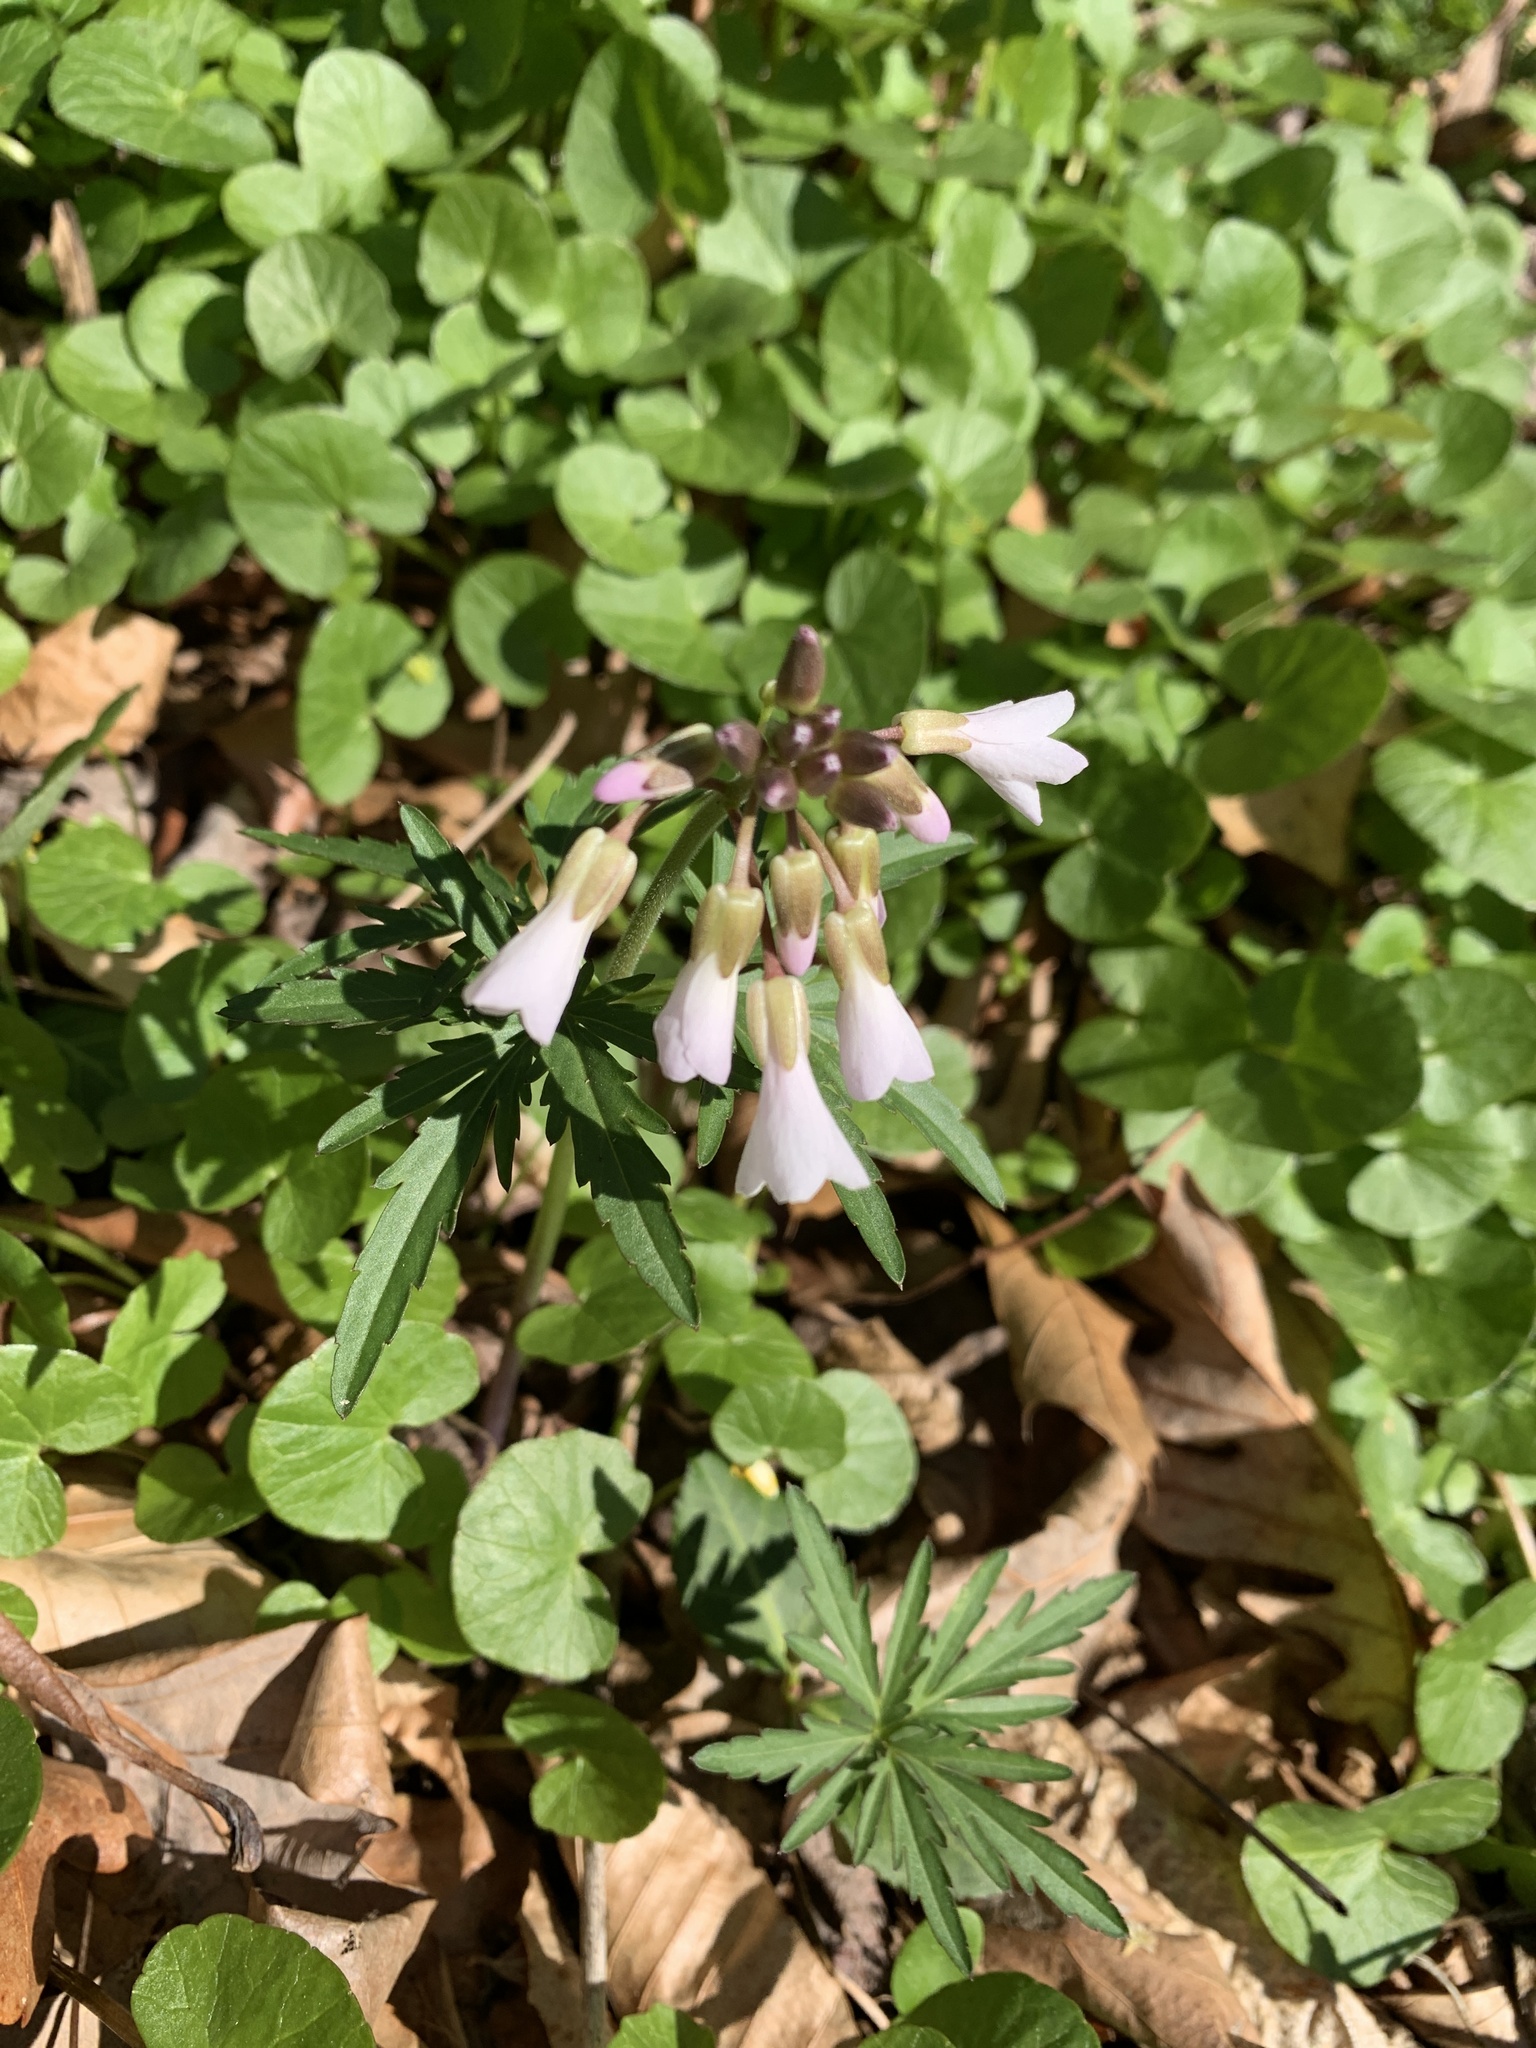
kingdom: Plantae
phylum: Tracheophyta
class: Magnoliopsida
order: Brassicales
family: Brassicaceae
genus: Cardamine
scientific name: Cardamine concatenata
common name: Cut-leaf toothcup
